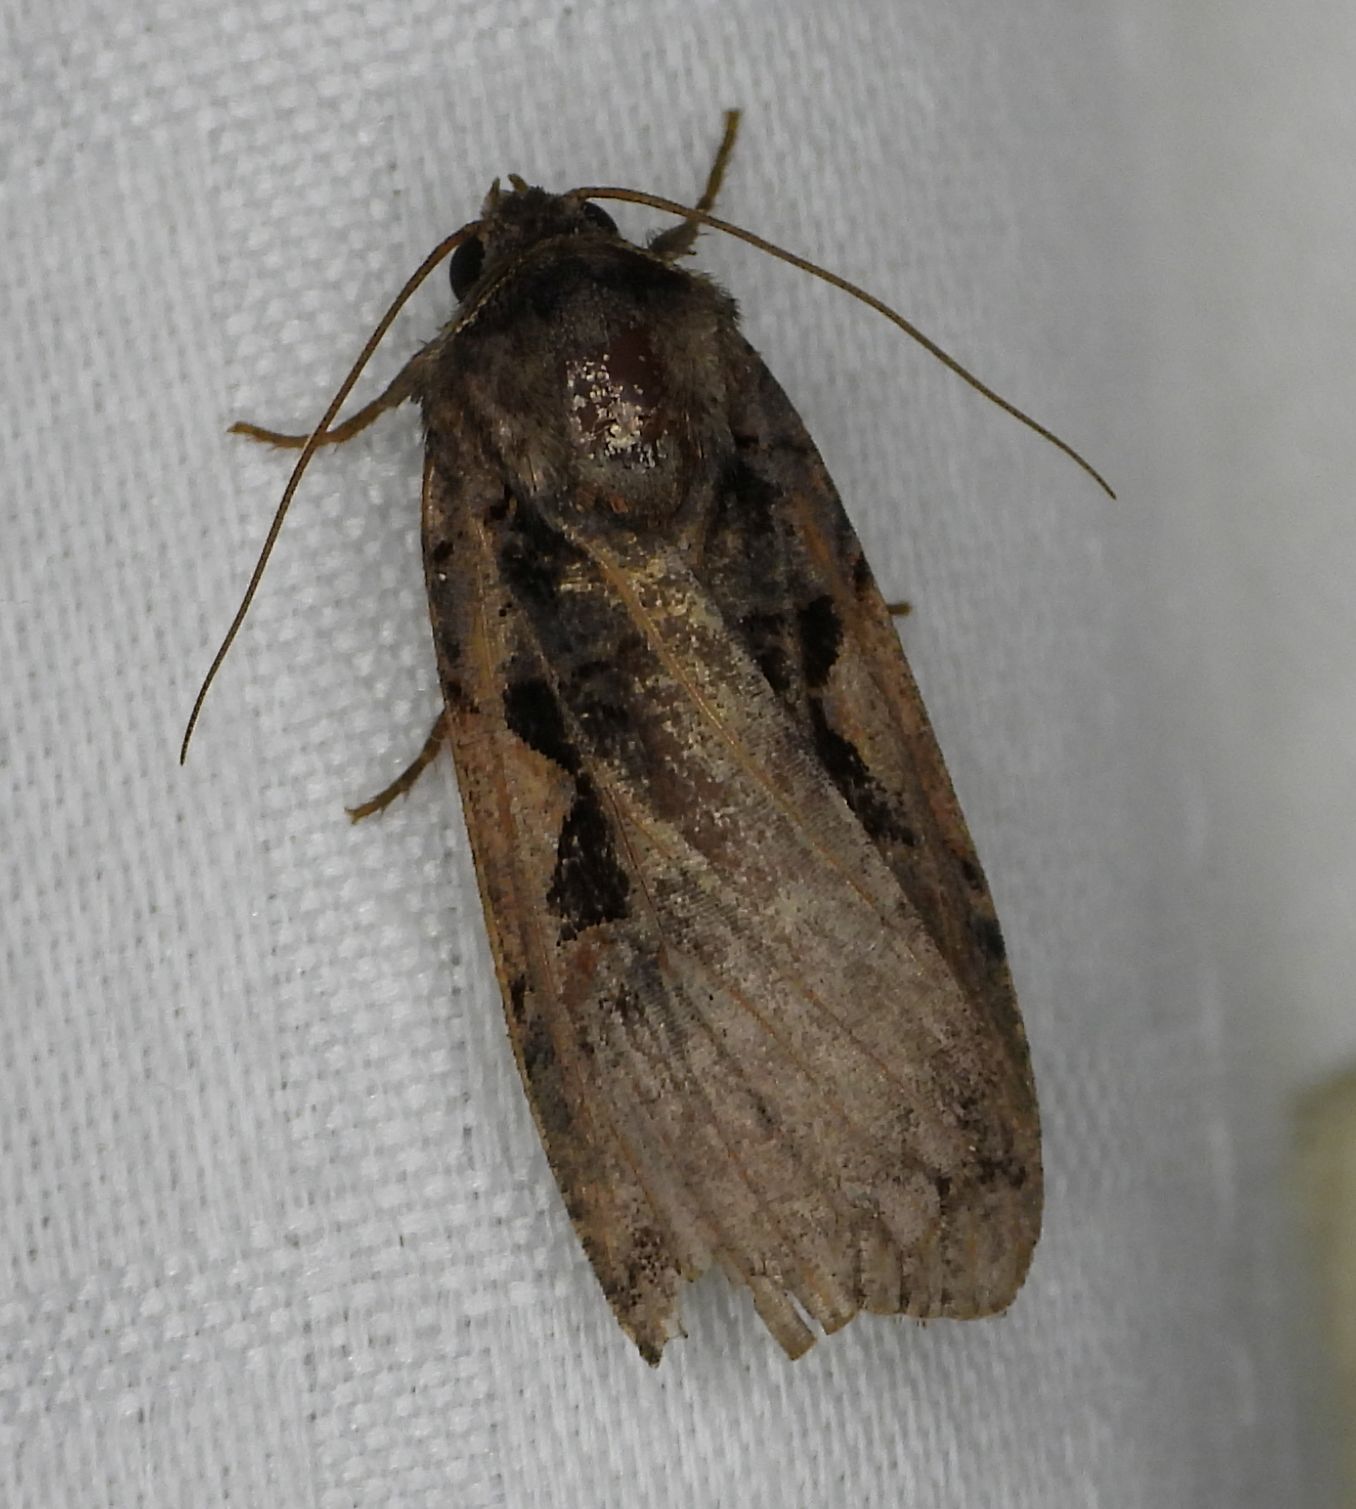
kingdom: Animalia
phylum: Arthropoda
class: Insecta
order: Lepidoptera
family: Noctuidae
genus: Xestia
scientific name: Xestia
